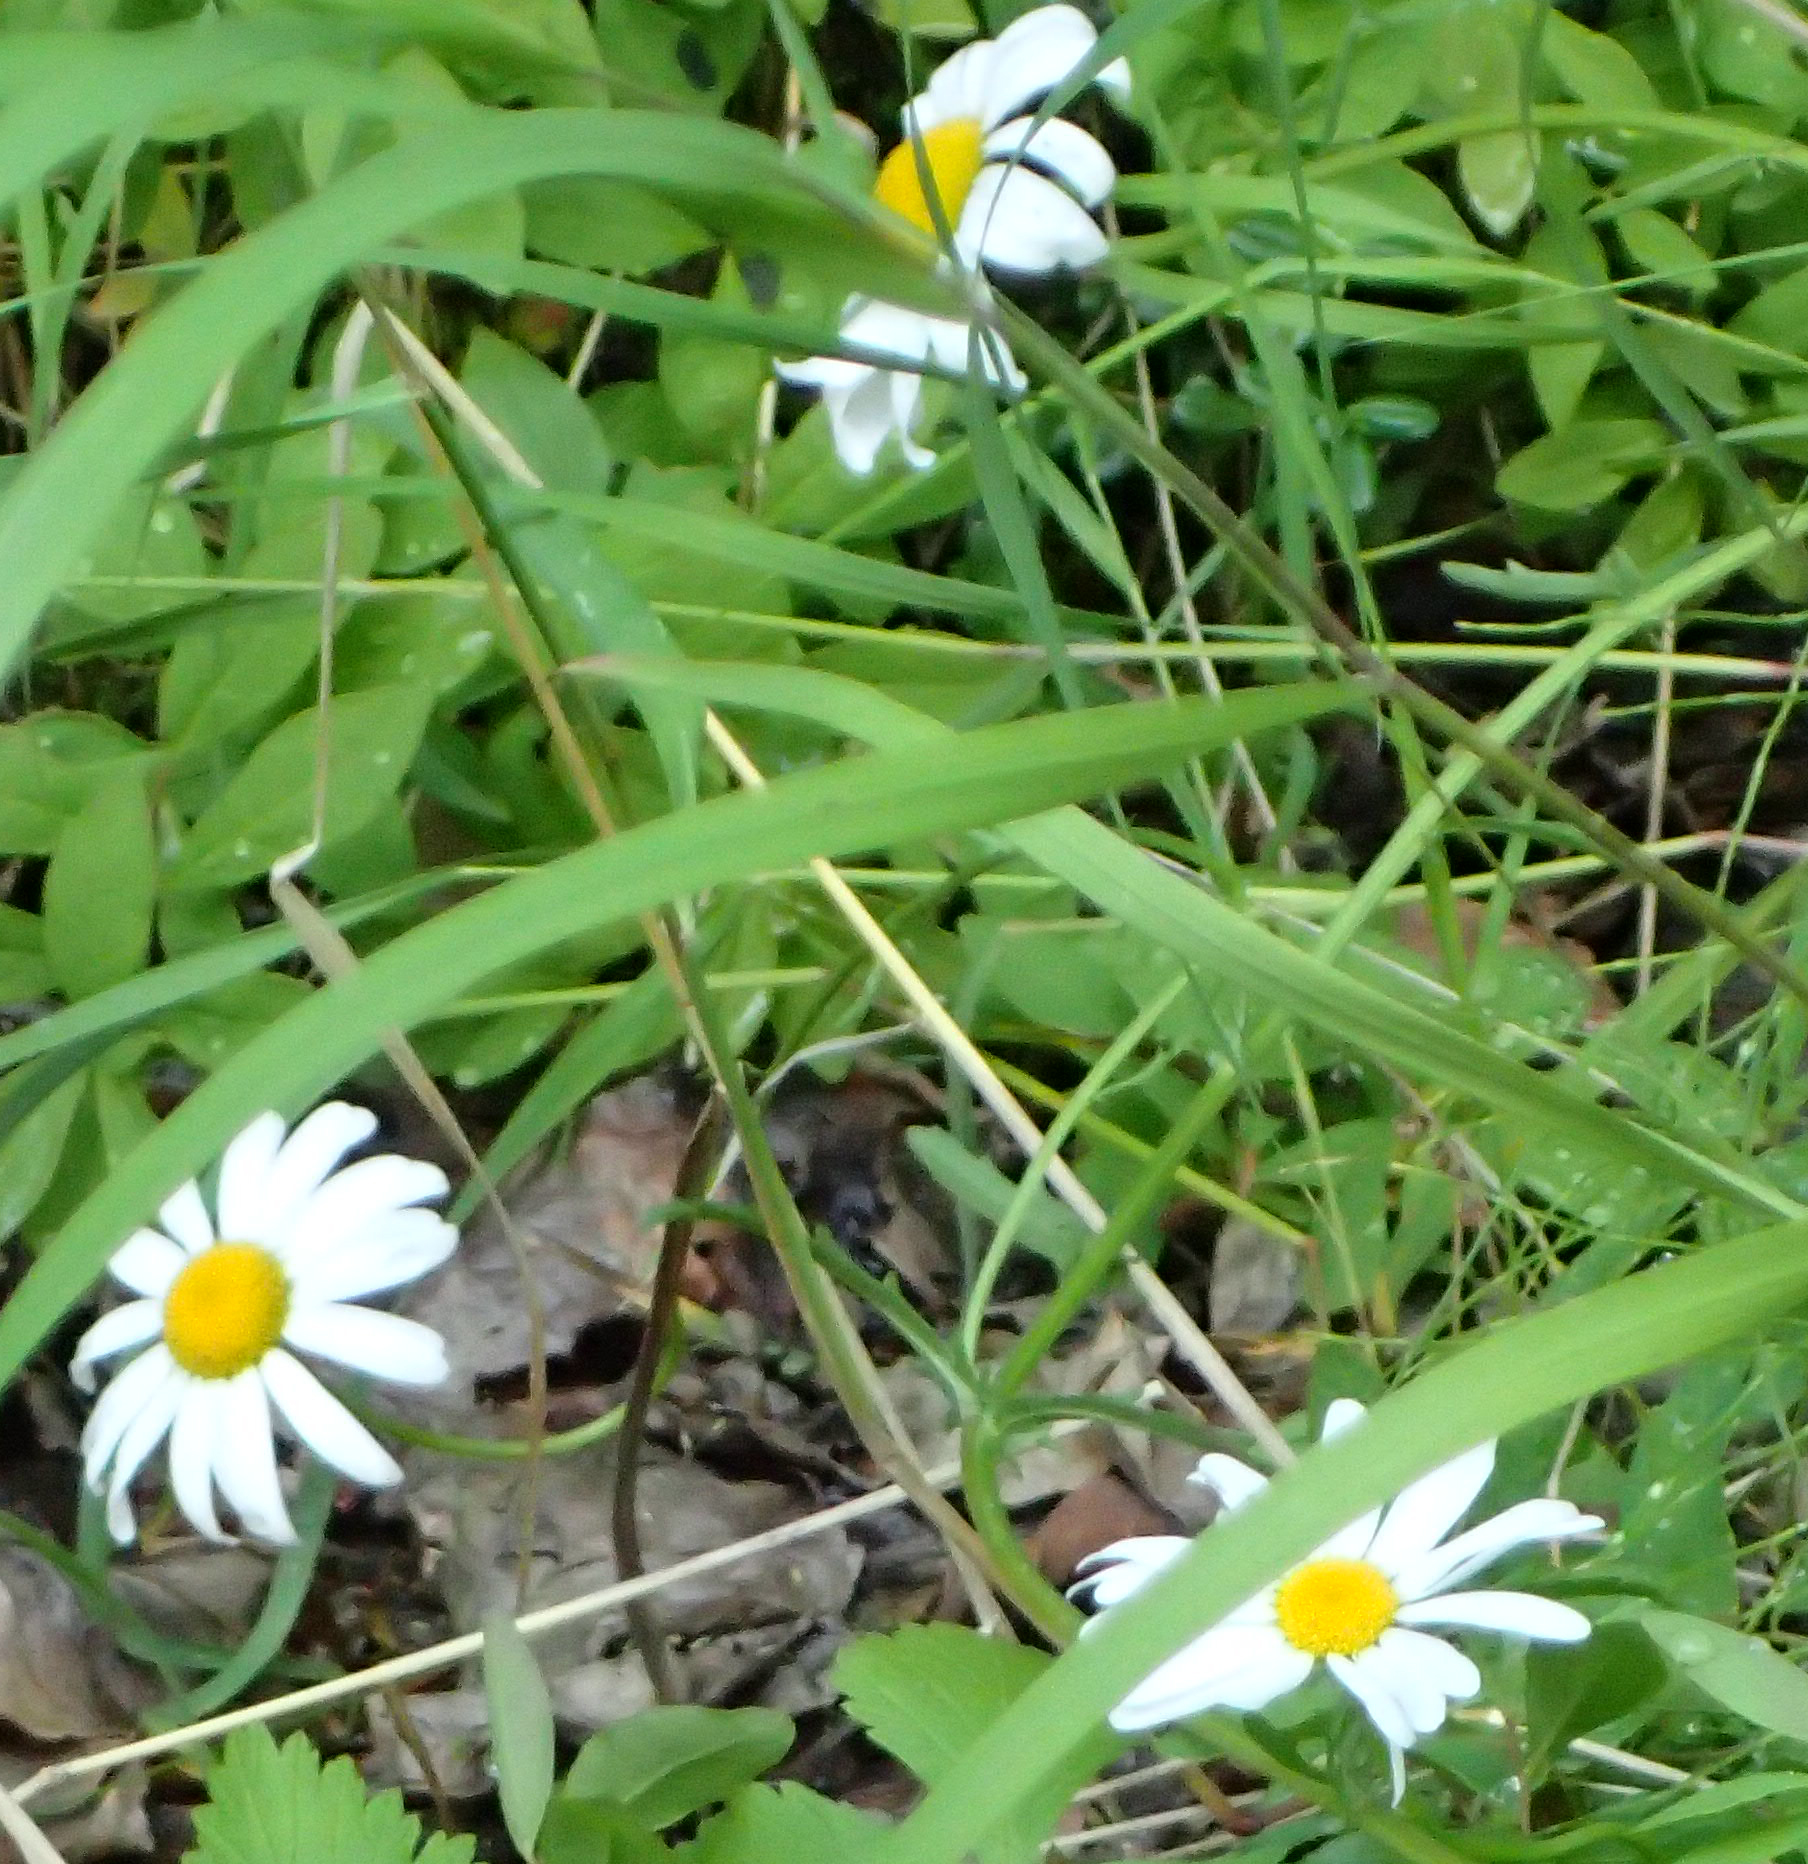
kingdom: Plantae
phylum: Tracheophyta
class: Magnoliopsida
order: Asterales
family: Asteraceae
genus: Leucanthemum
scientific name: Leucanthemum vulgare
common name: Oxeye daisy
